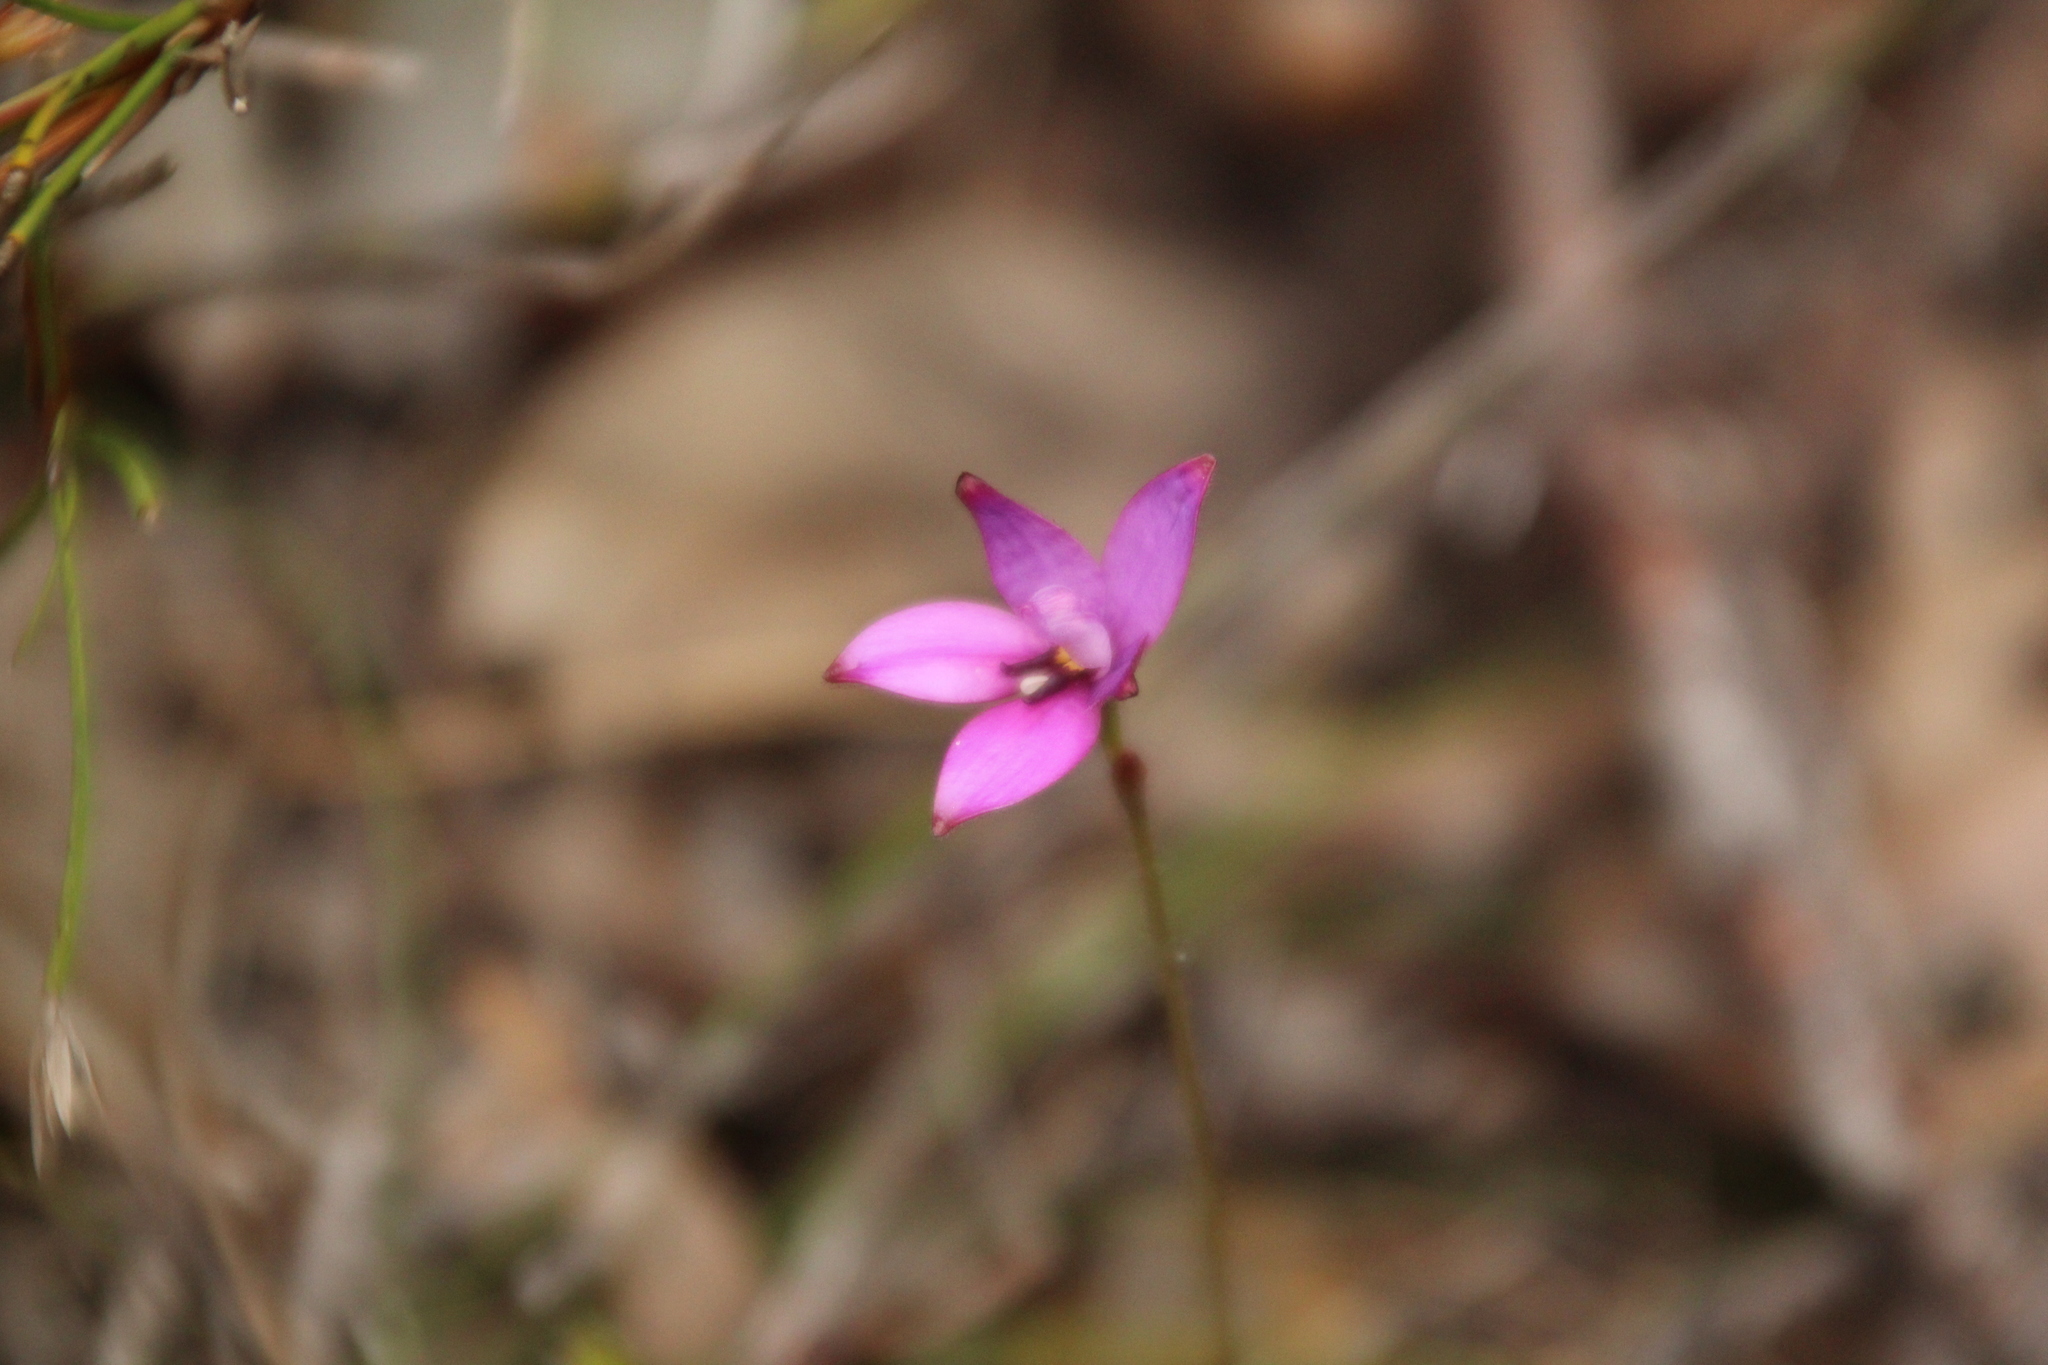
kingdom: Plantae
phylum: Tracheophyta
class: Liliopsida
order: Asparagales
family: Orchidaceae
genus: Caladenia
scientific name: Caladenia brunonis
